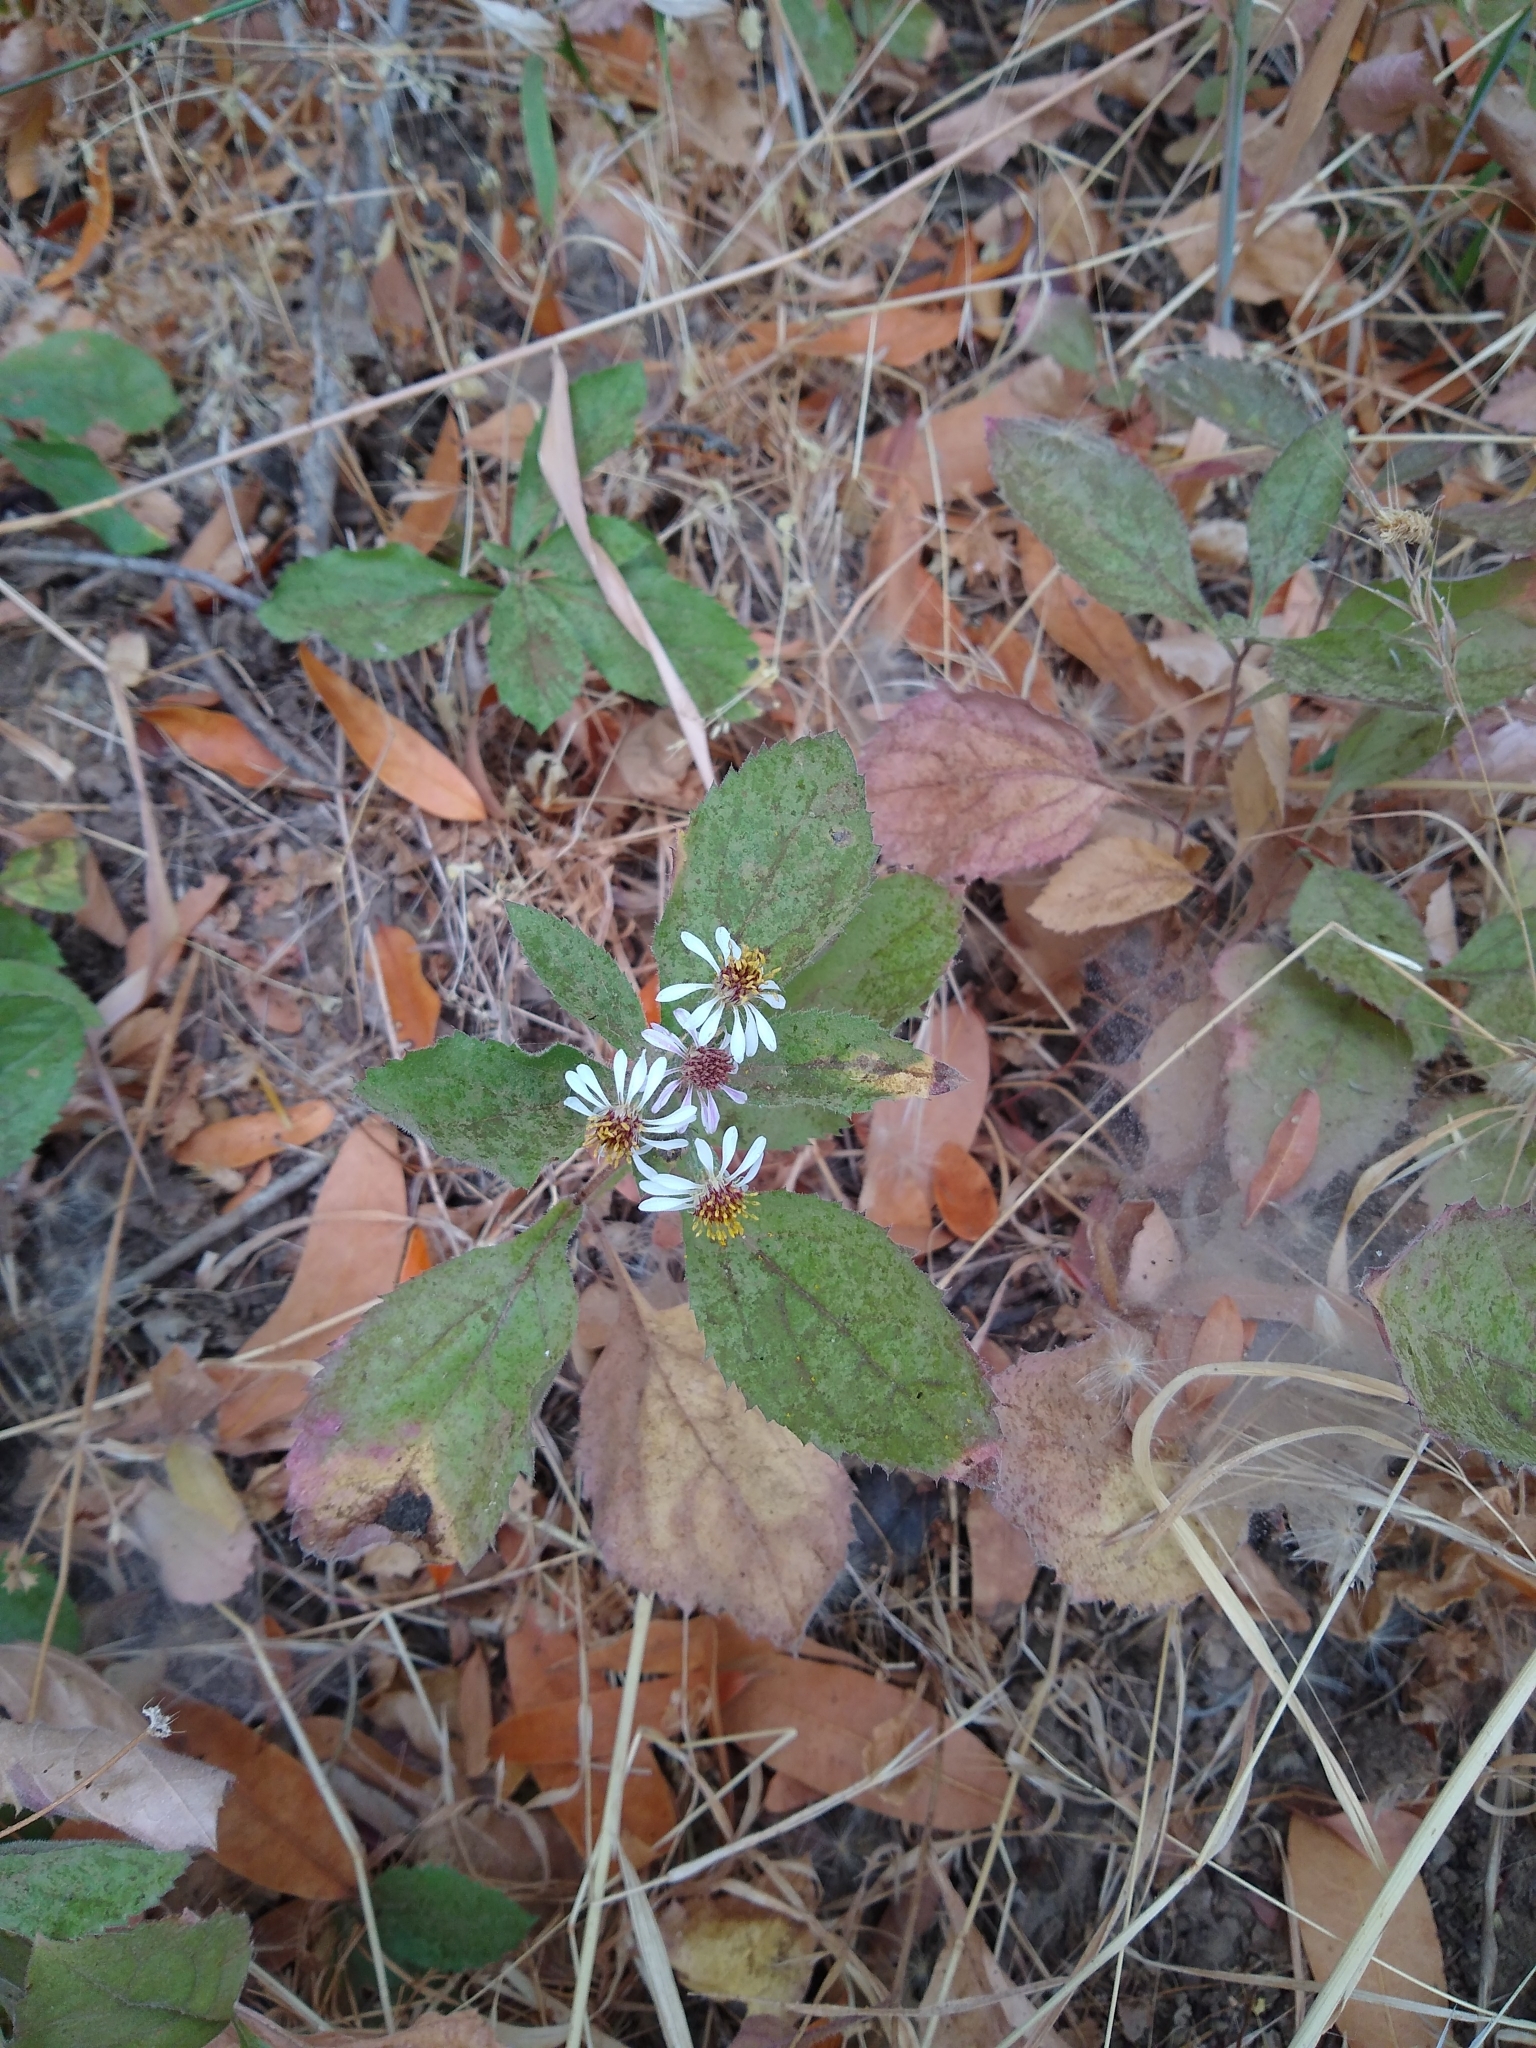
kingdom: Plantae
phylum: Tracheophyta
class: Magnoliopsida
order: Asterales
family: Asteraceae
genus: Eurybia
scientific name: Eurybia radulina
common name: Rough-leaved aster
